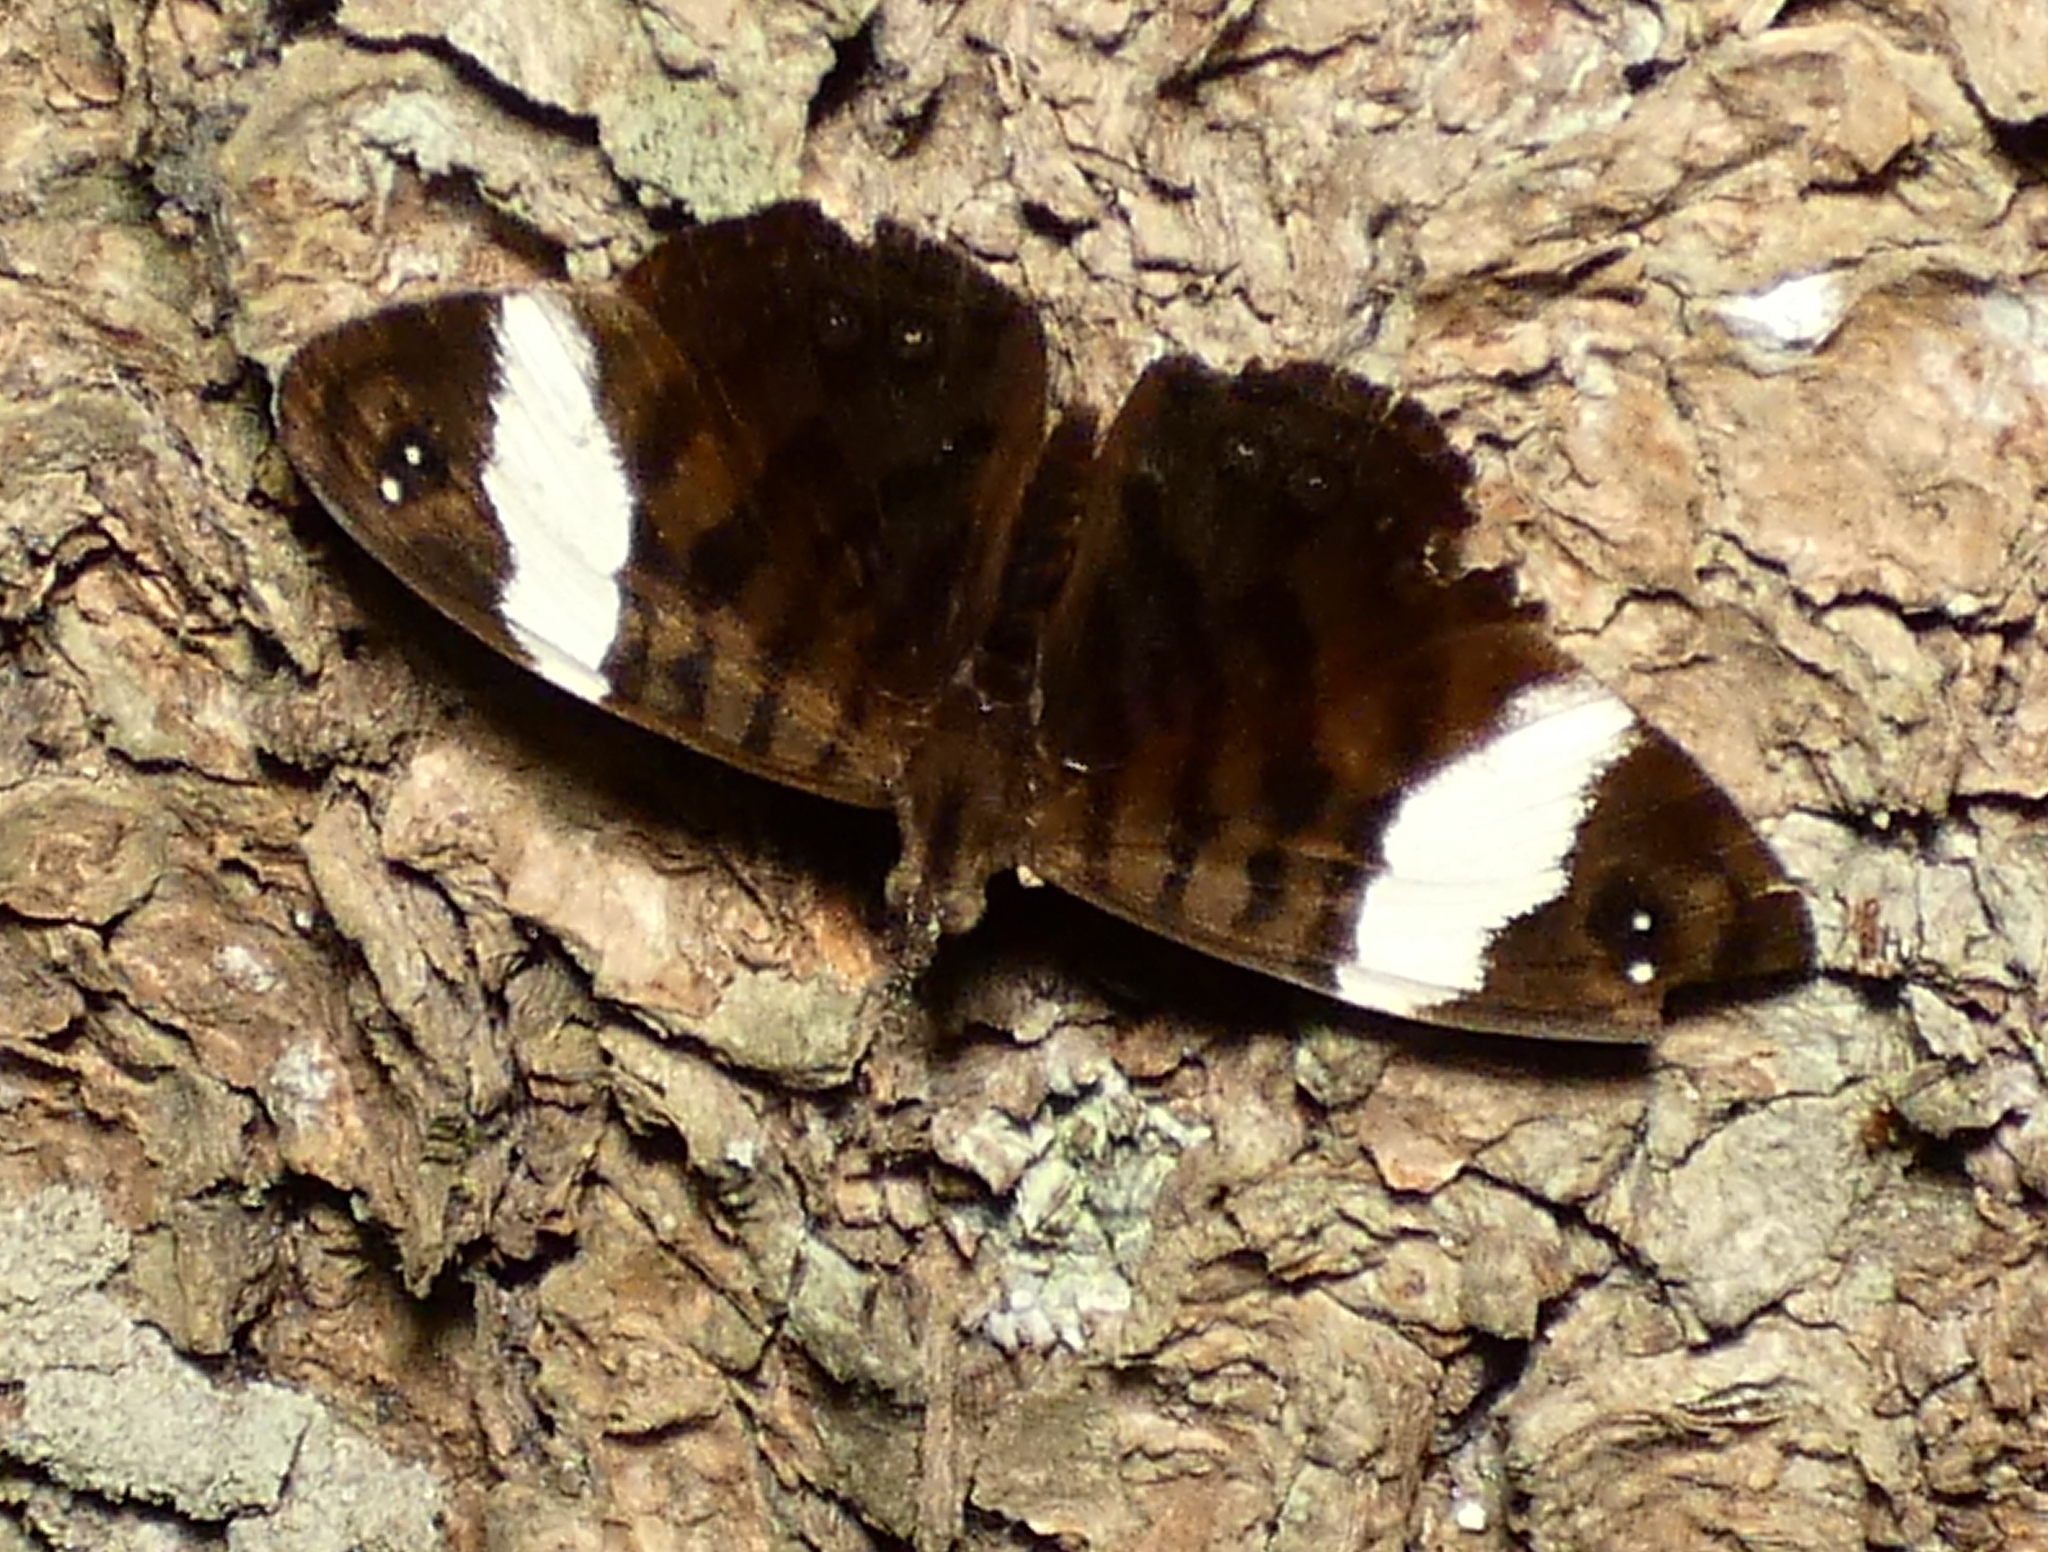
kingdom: Animalia
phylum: Arthropoda
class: Insecta
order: Lepidoptera
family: Nymphalidae
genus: Ectima
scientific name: Ectima thecla
